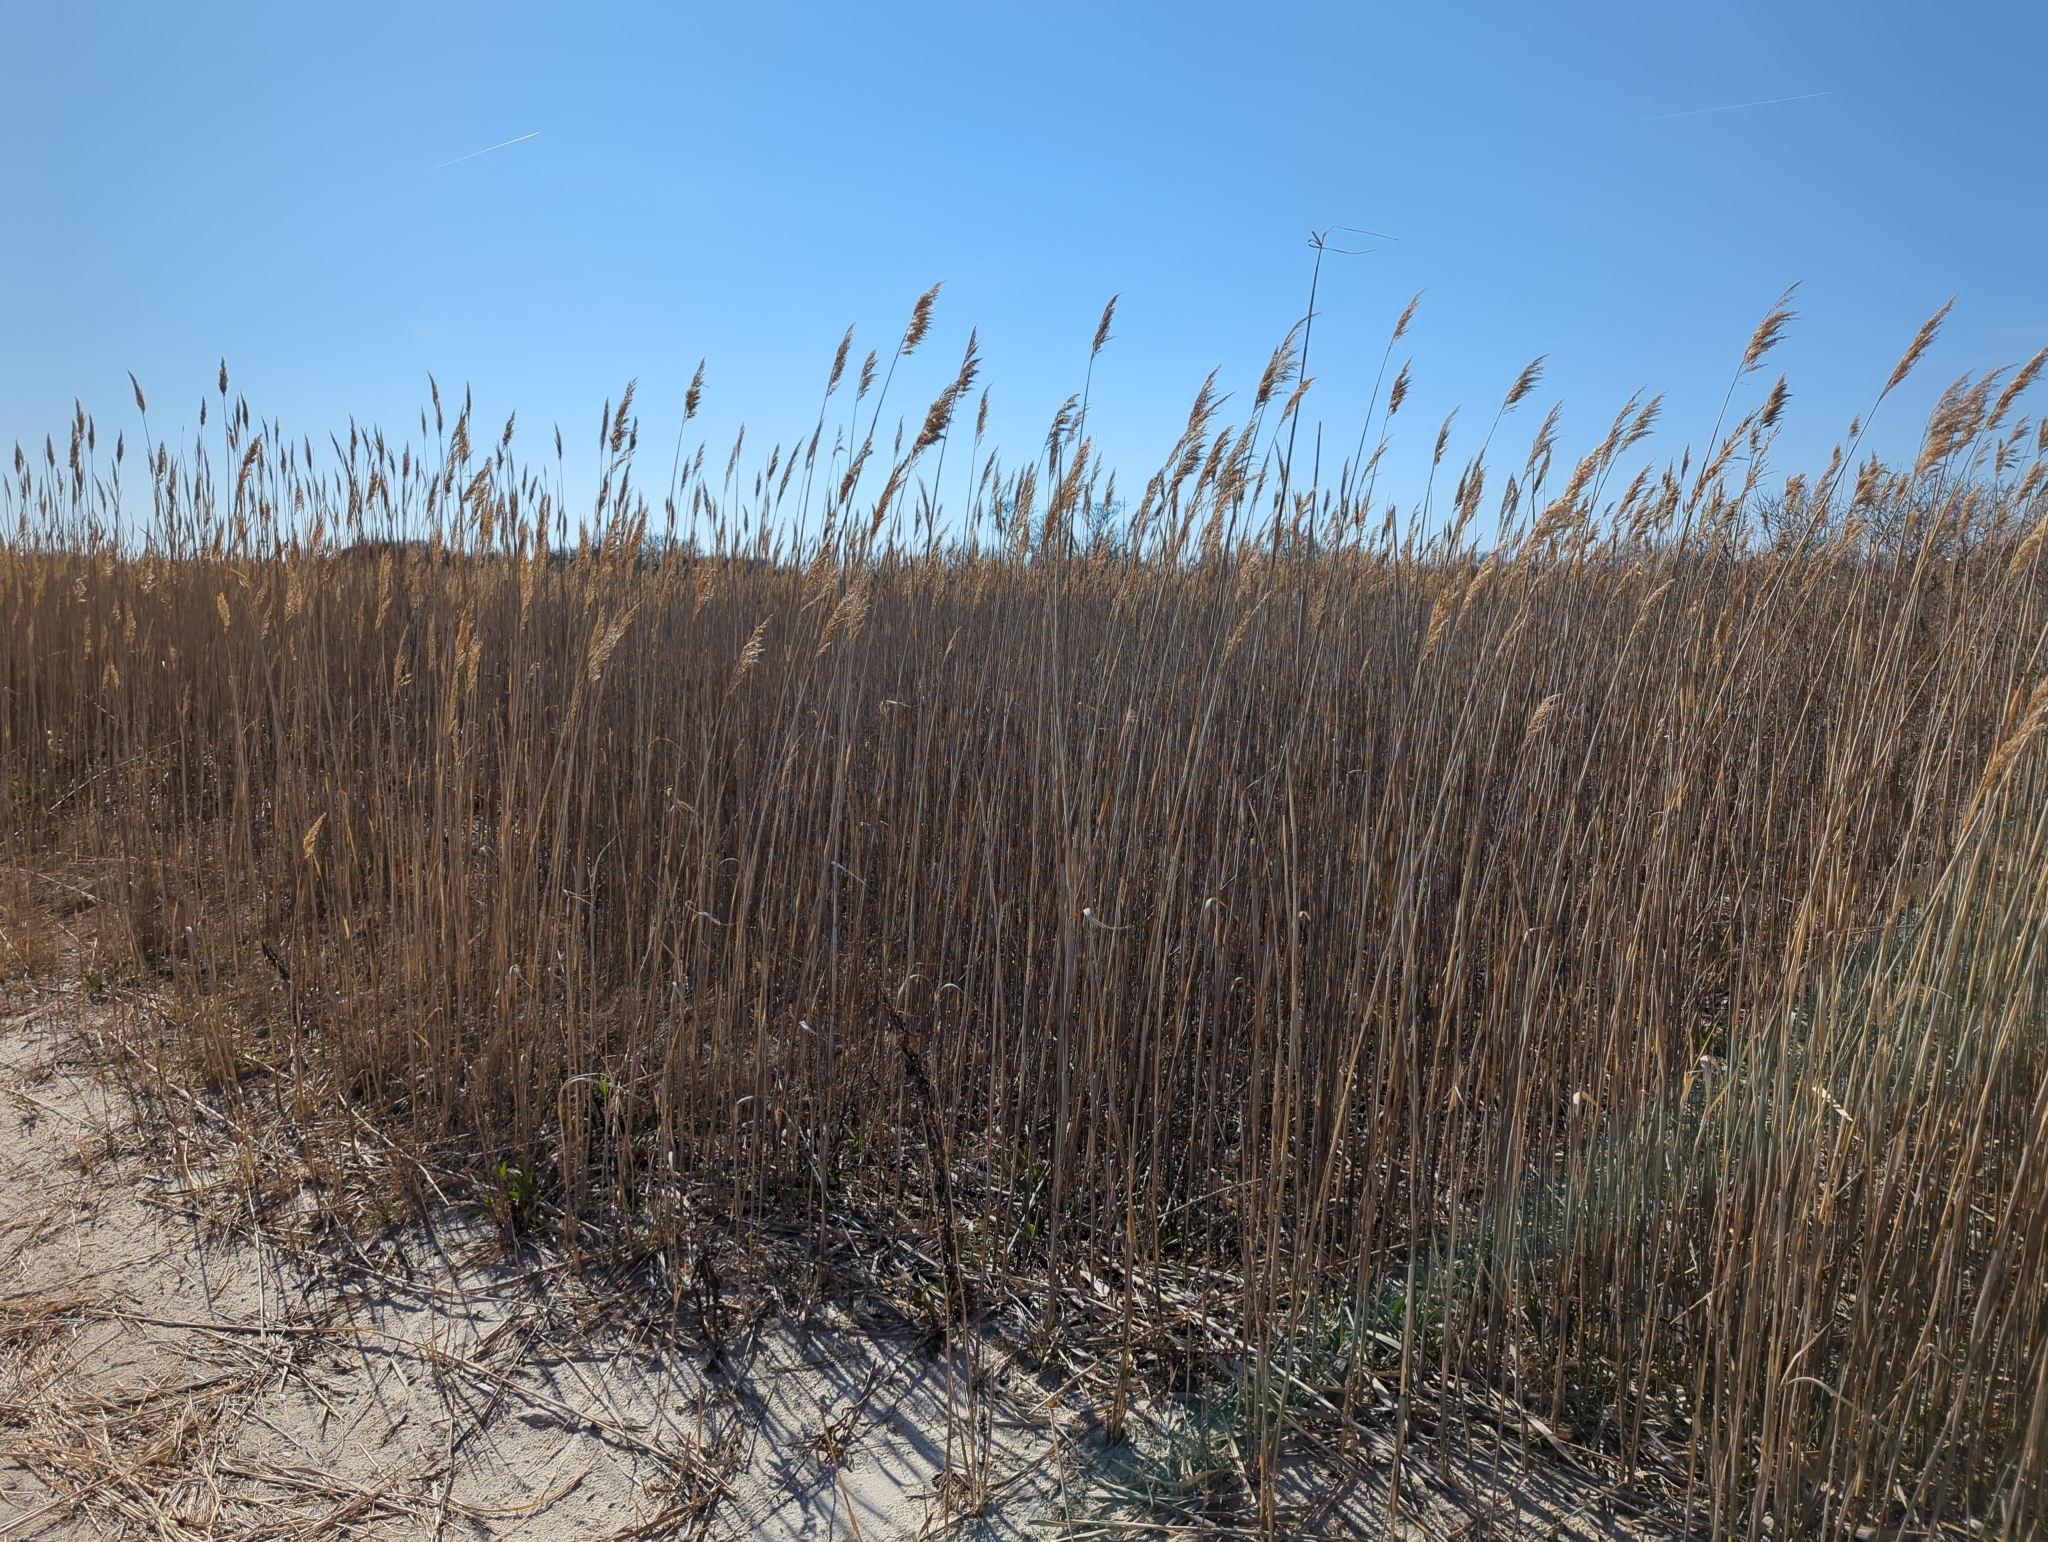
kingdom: Plantae
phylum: Tracheophyta
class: Liliopsida
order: Poales
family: Poaceae
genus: Phragmites
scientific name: Phragmites australis
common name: Common reed
